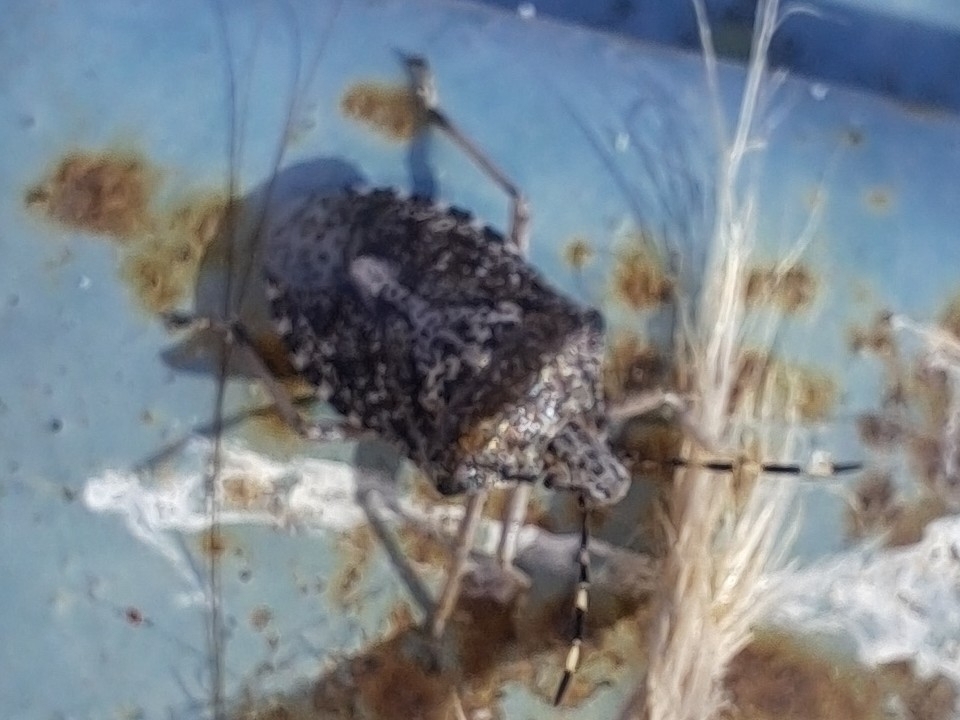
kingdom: Animalia
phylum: Arthropoda
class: Insecta
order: Hemiptera
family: Pentatomidae
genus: Rhaphigaster
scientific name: Rhaphigaster nebulosa
